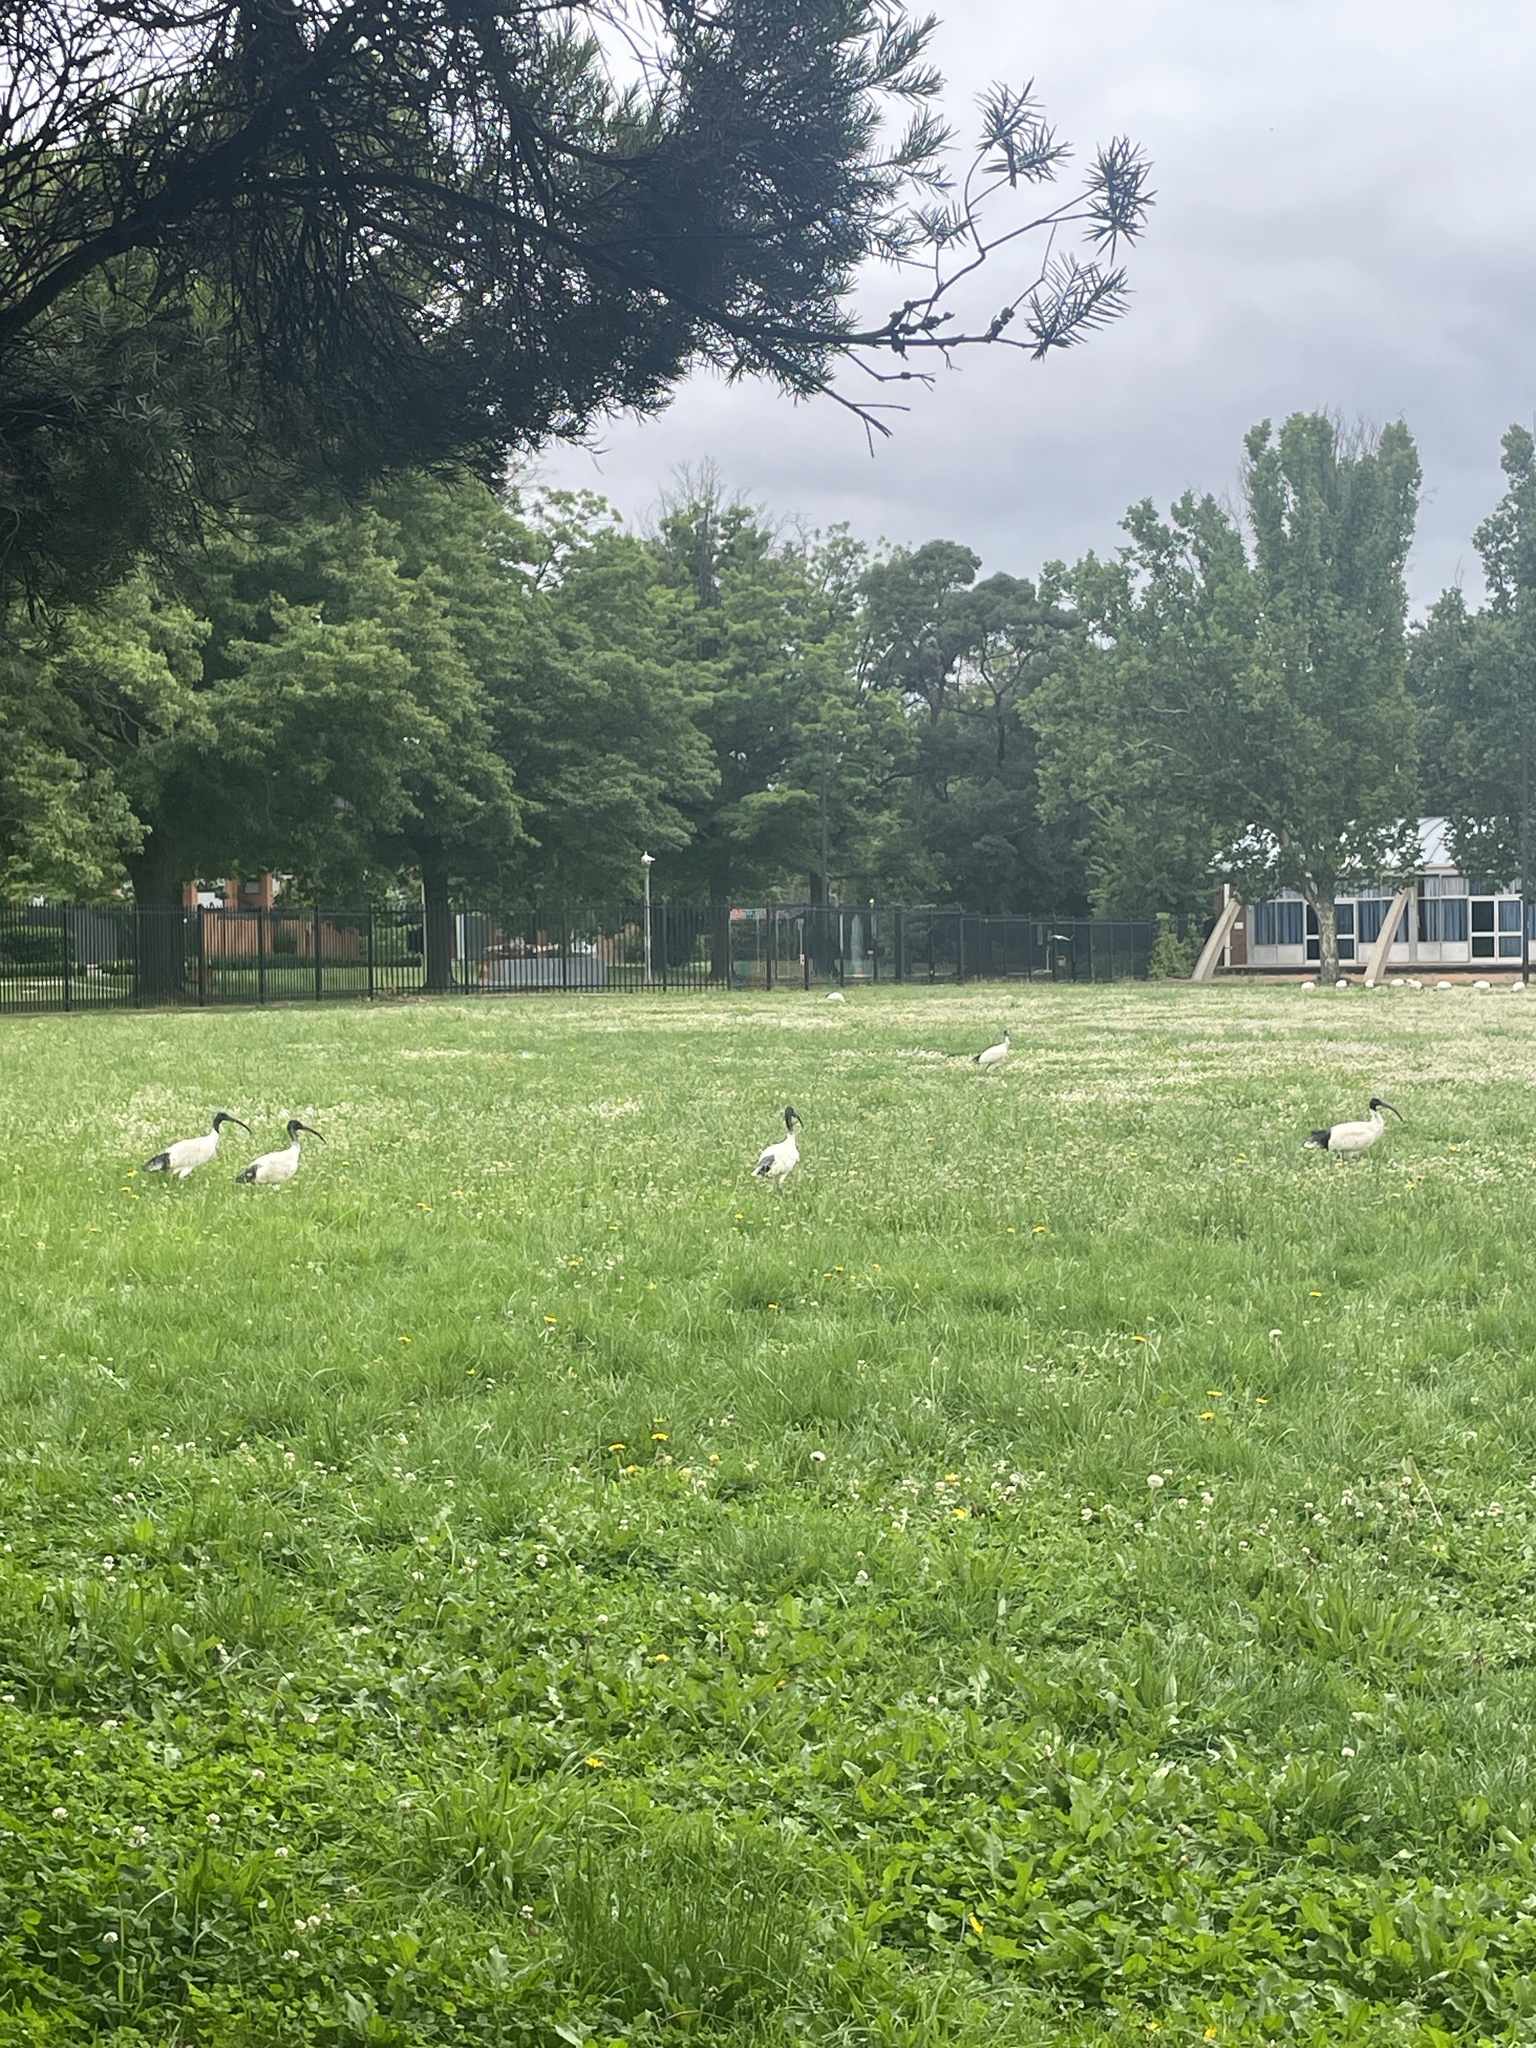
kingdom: Animalia
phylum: Chordata
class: Aves
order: Pelecaniformes
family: Threskiornithidae
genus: Threskiornis
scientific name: Threskiornis molucca
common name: Australian white ibis
